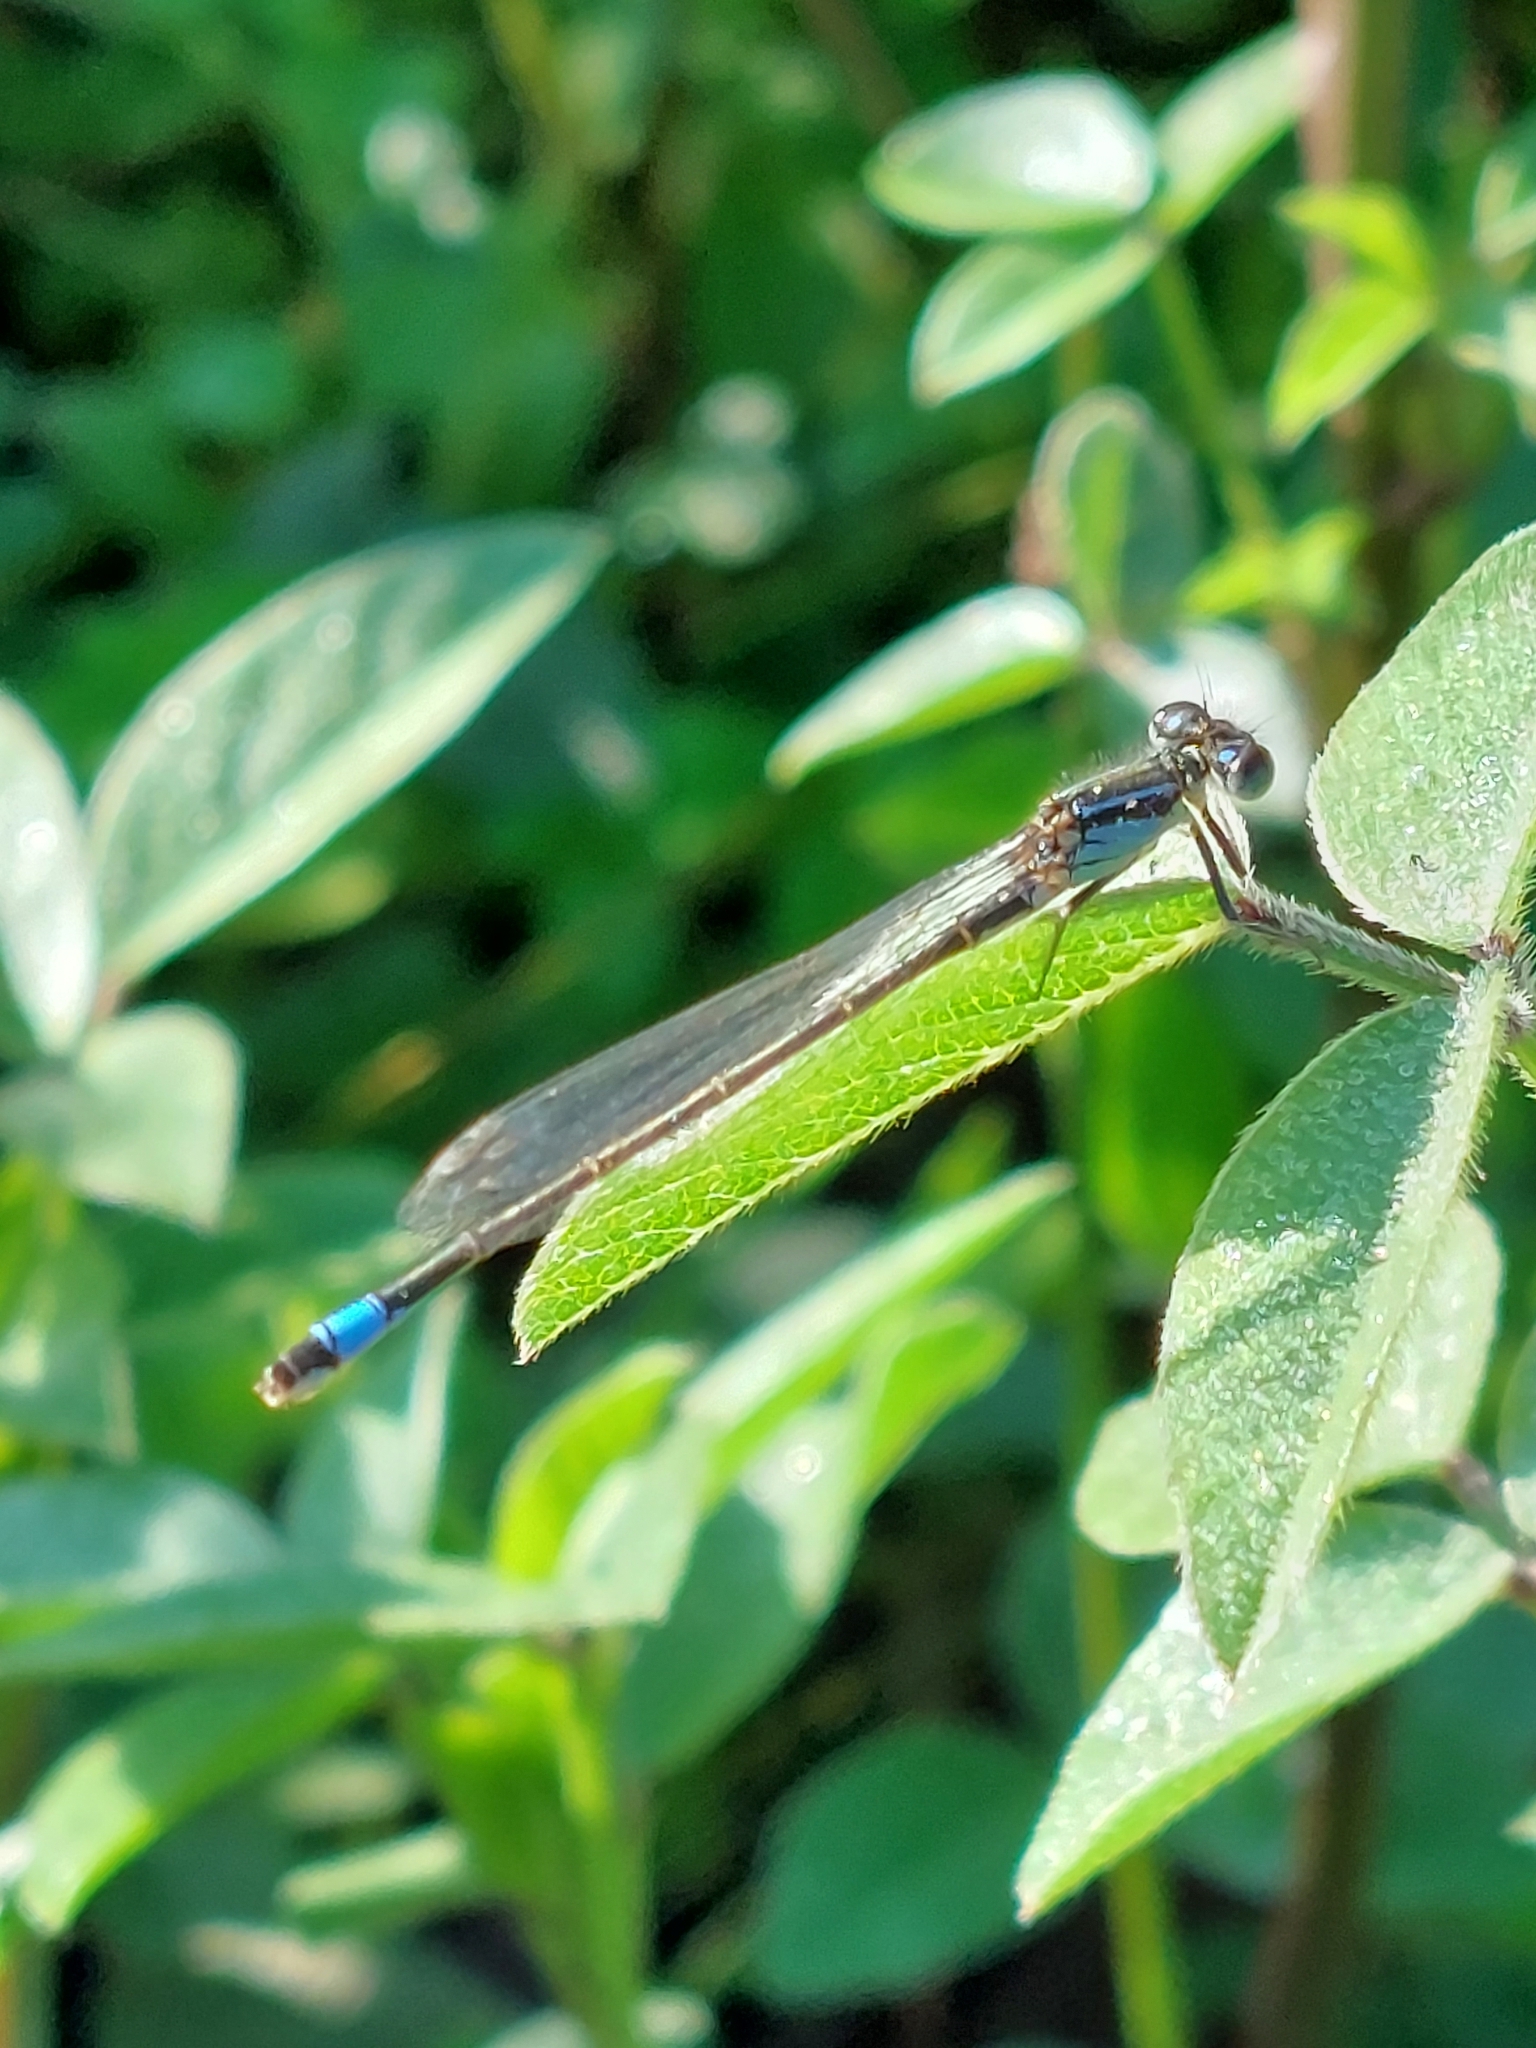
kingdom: Animalia
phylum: Arthropoda
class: Insecta
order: Odonata
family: Coenagrionidae
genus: Ischnura
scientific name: Ischnura elegans
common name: Blue-tailed damselfly
